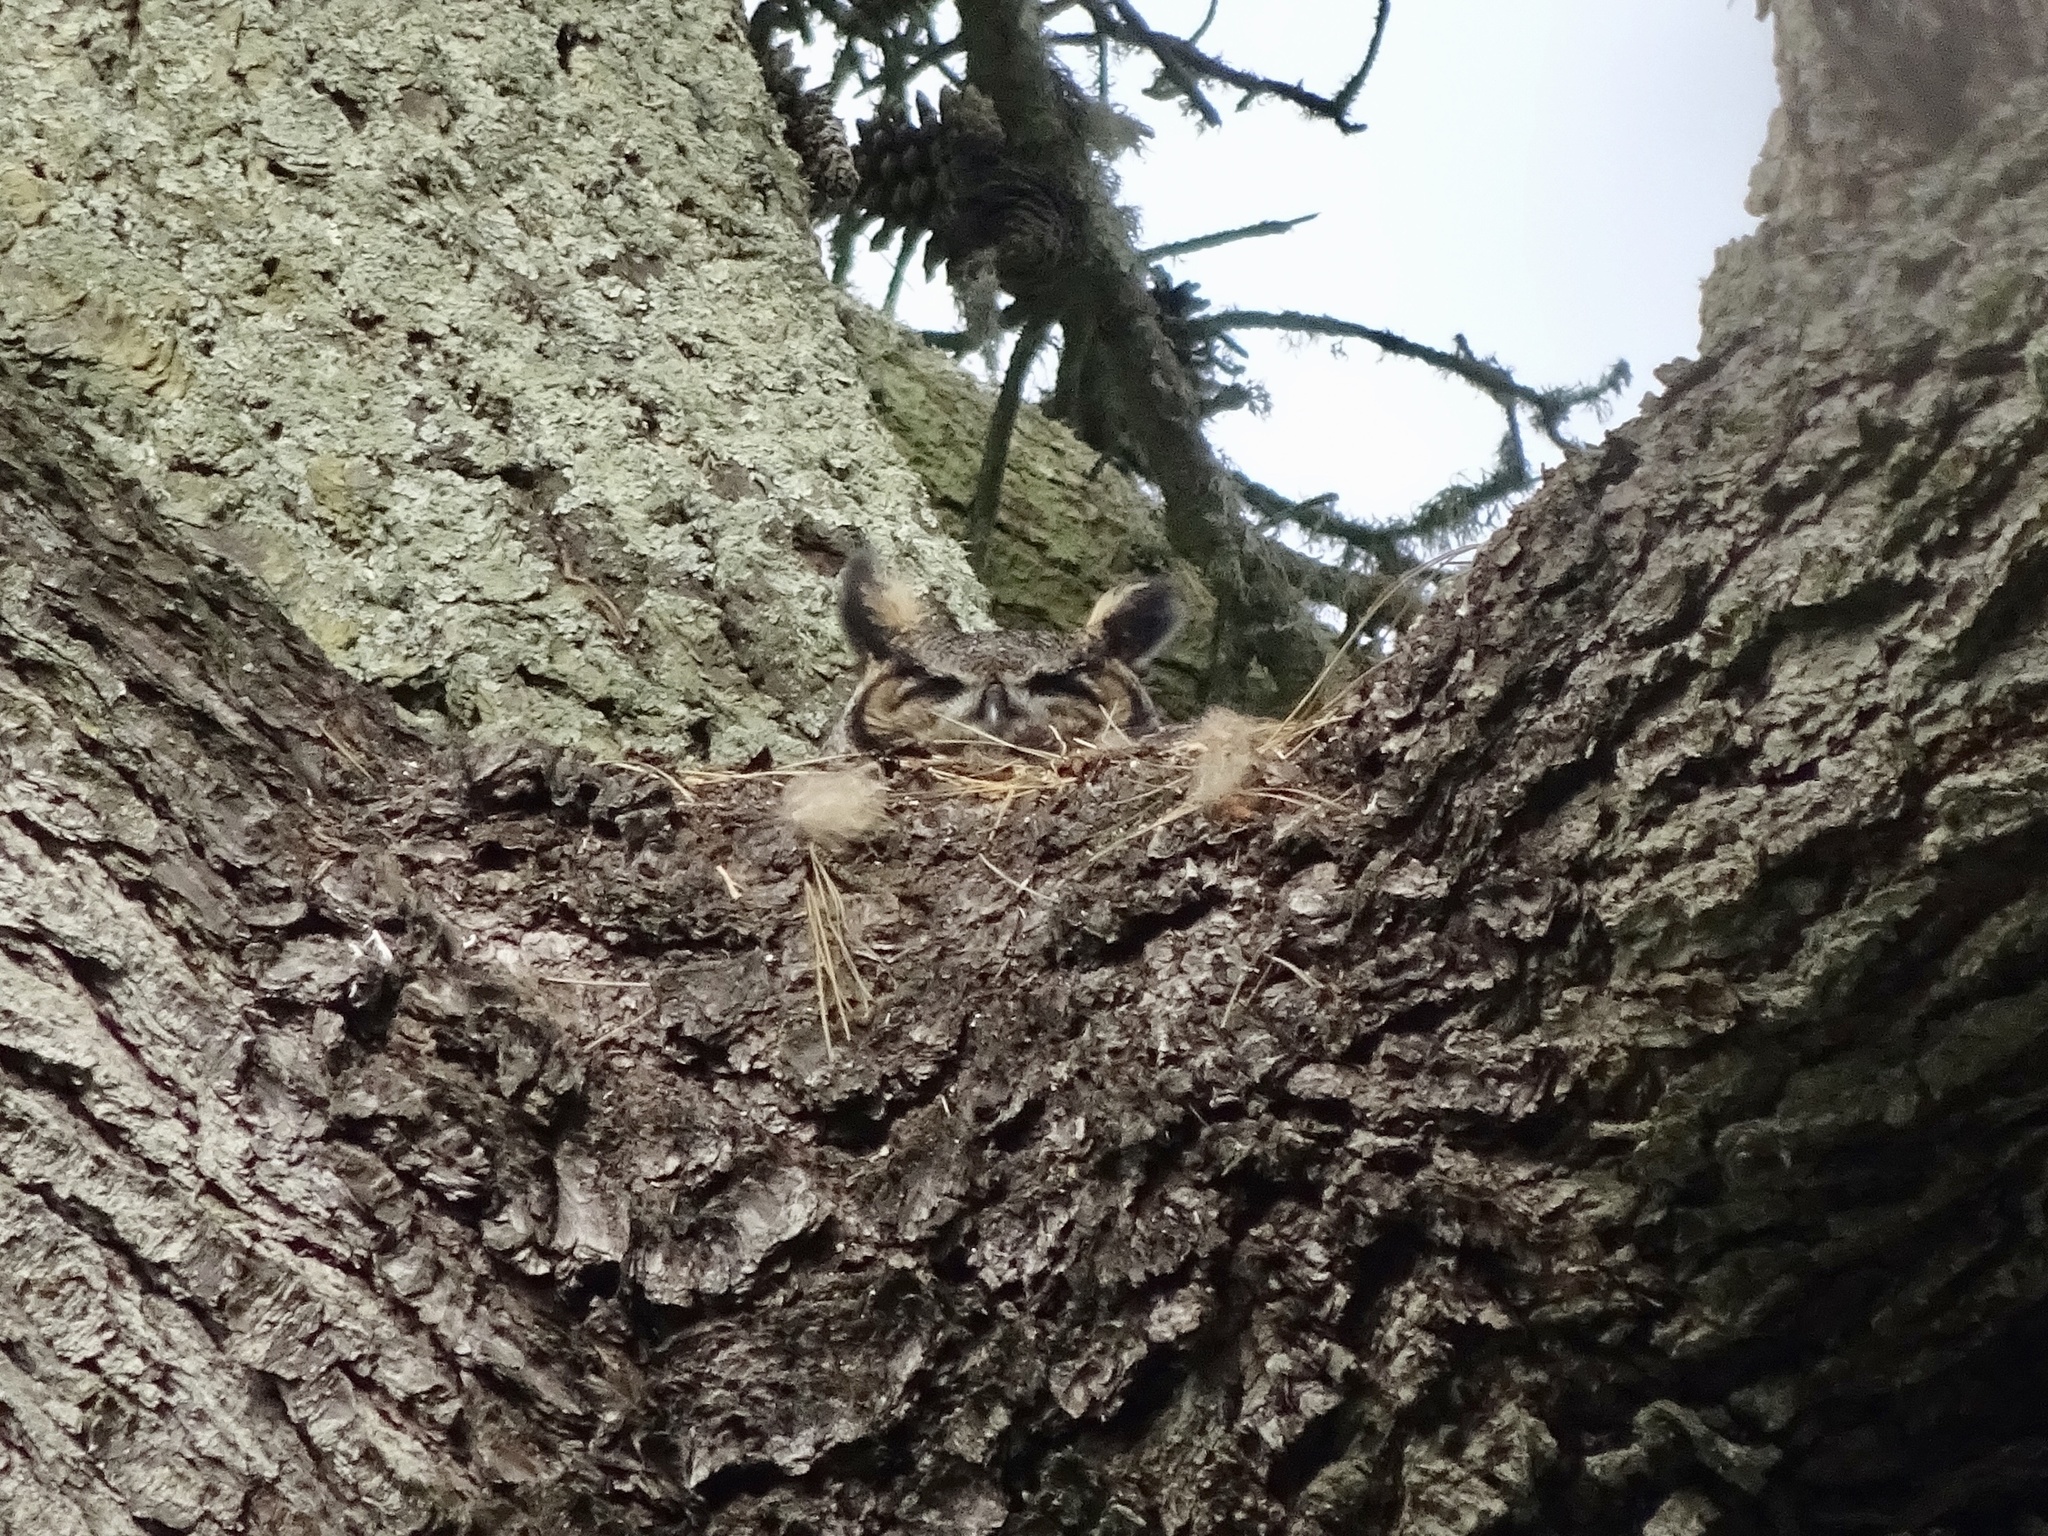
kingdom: Animalia
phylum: Chordata
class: Aves
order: Strigiformes
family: Strigidae
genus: Bubo
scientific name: Bubo virginianus
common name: Great horned owl
